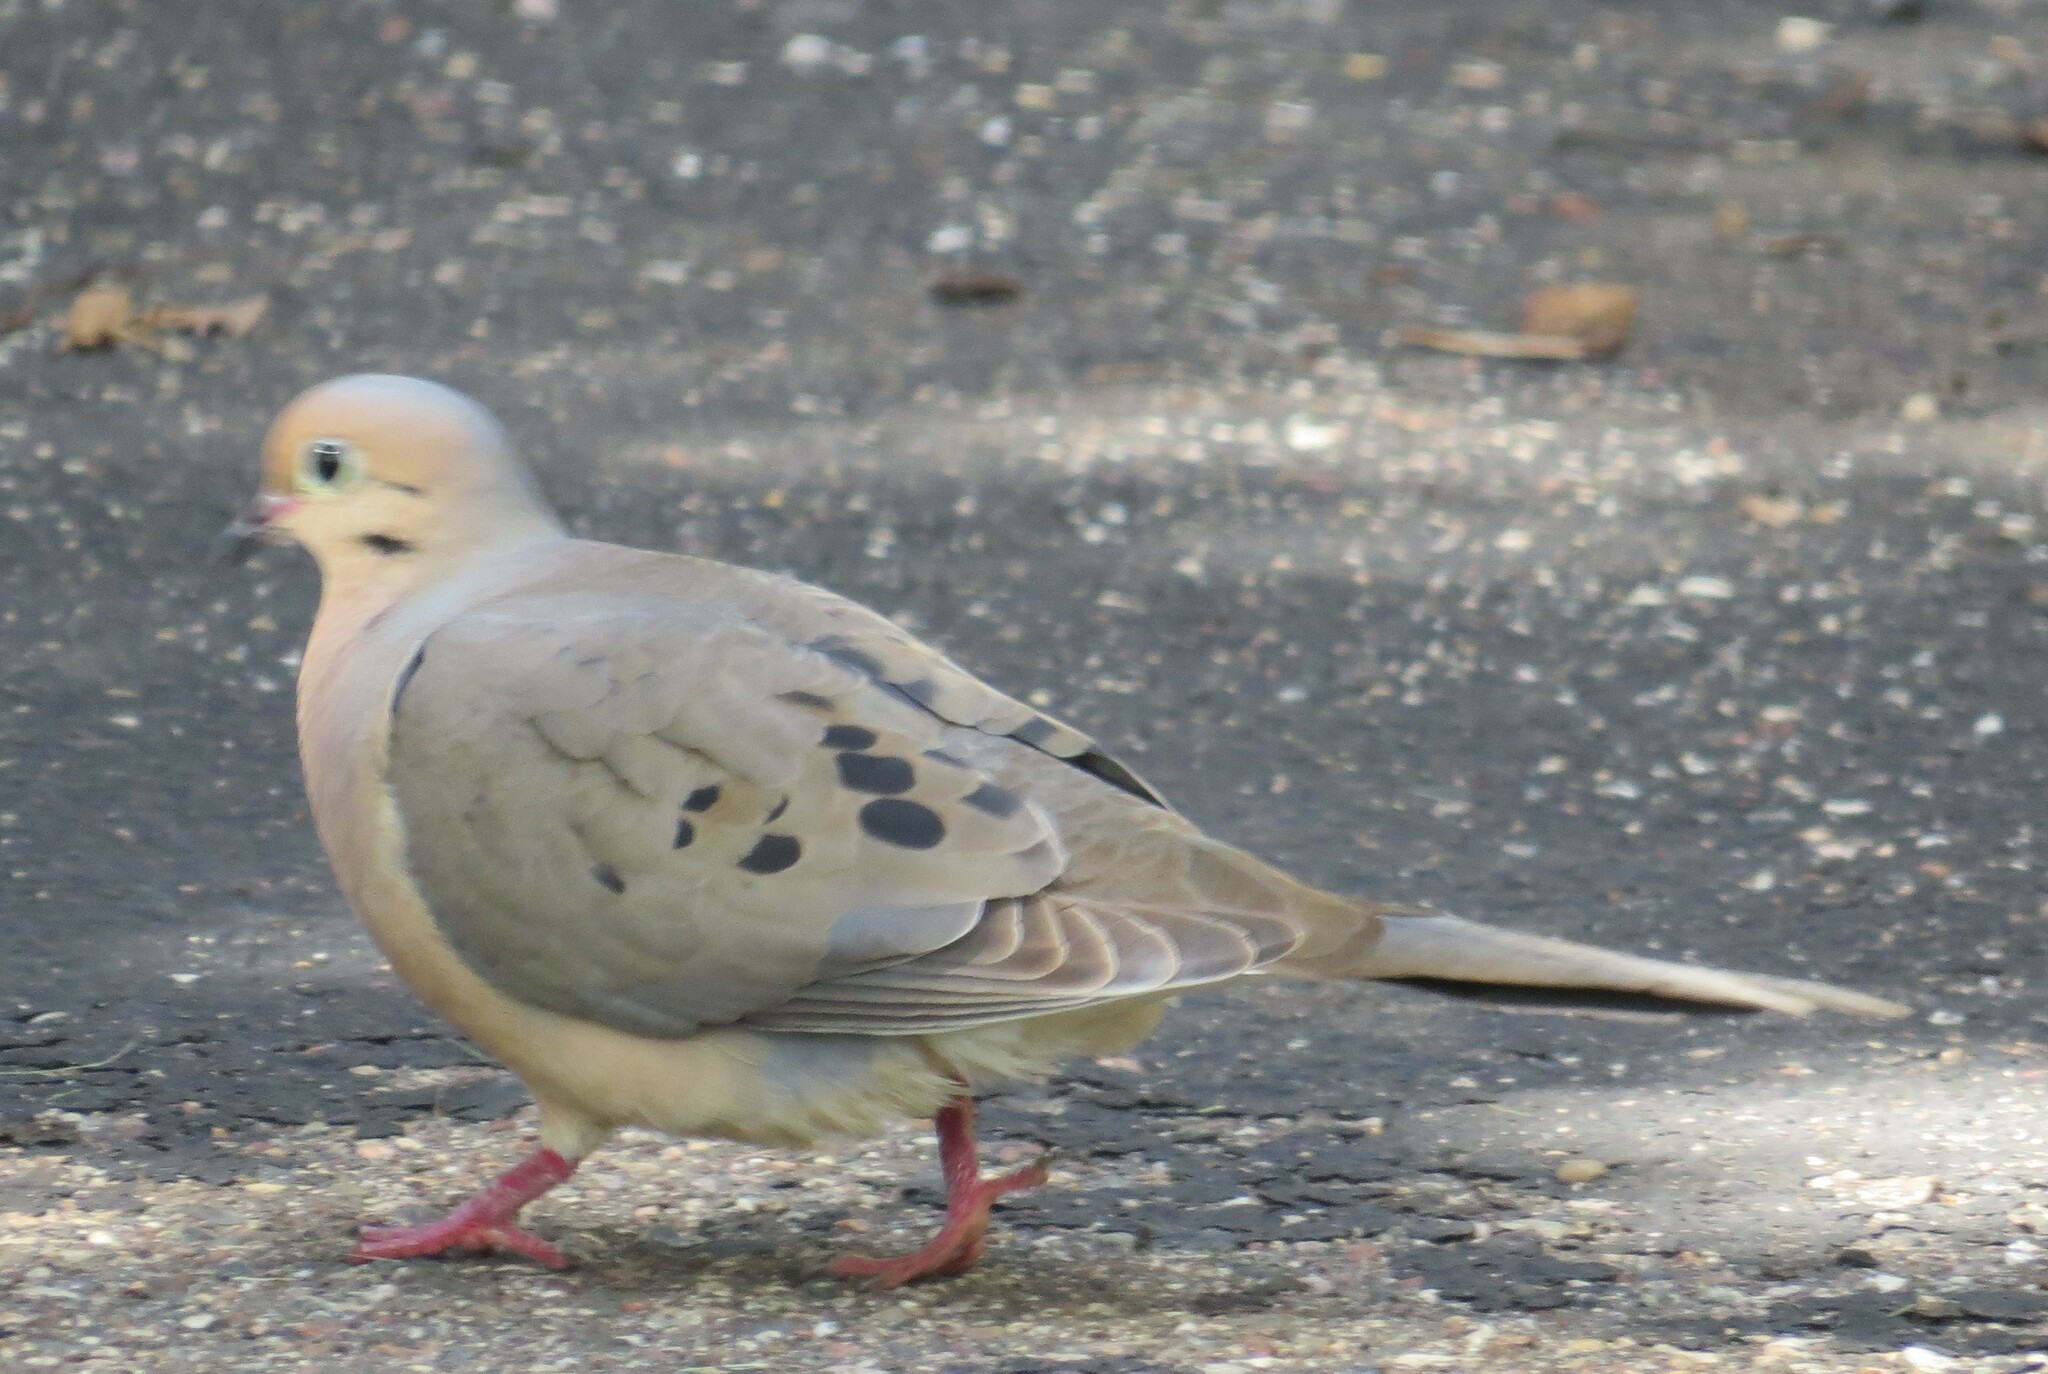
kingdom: Animalia
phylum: Chordata
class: Aves
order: Columbiformes
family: Columbidae
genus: Zenaida
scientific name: Zenaida macroura
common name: Mourning dove
